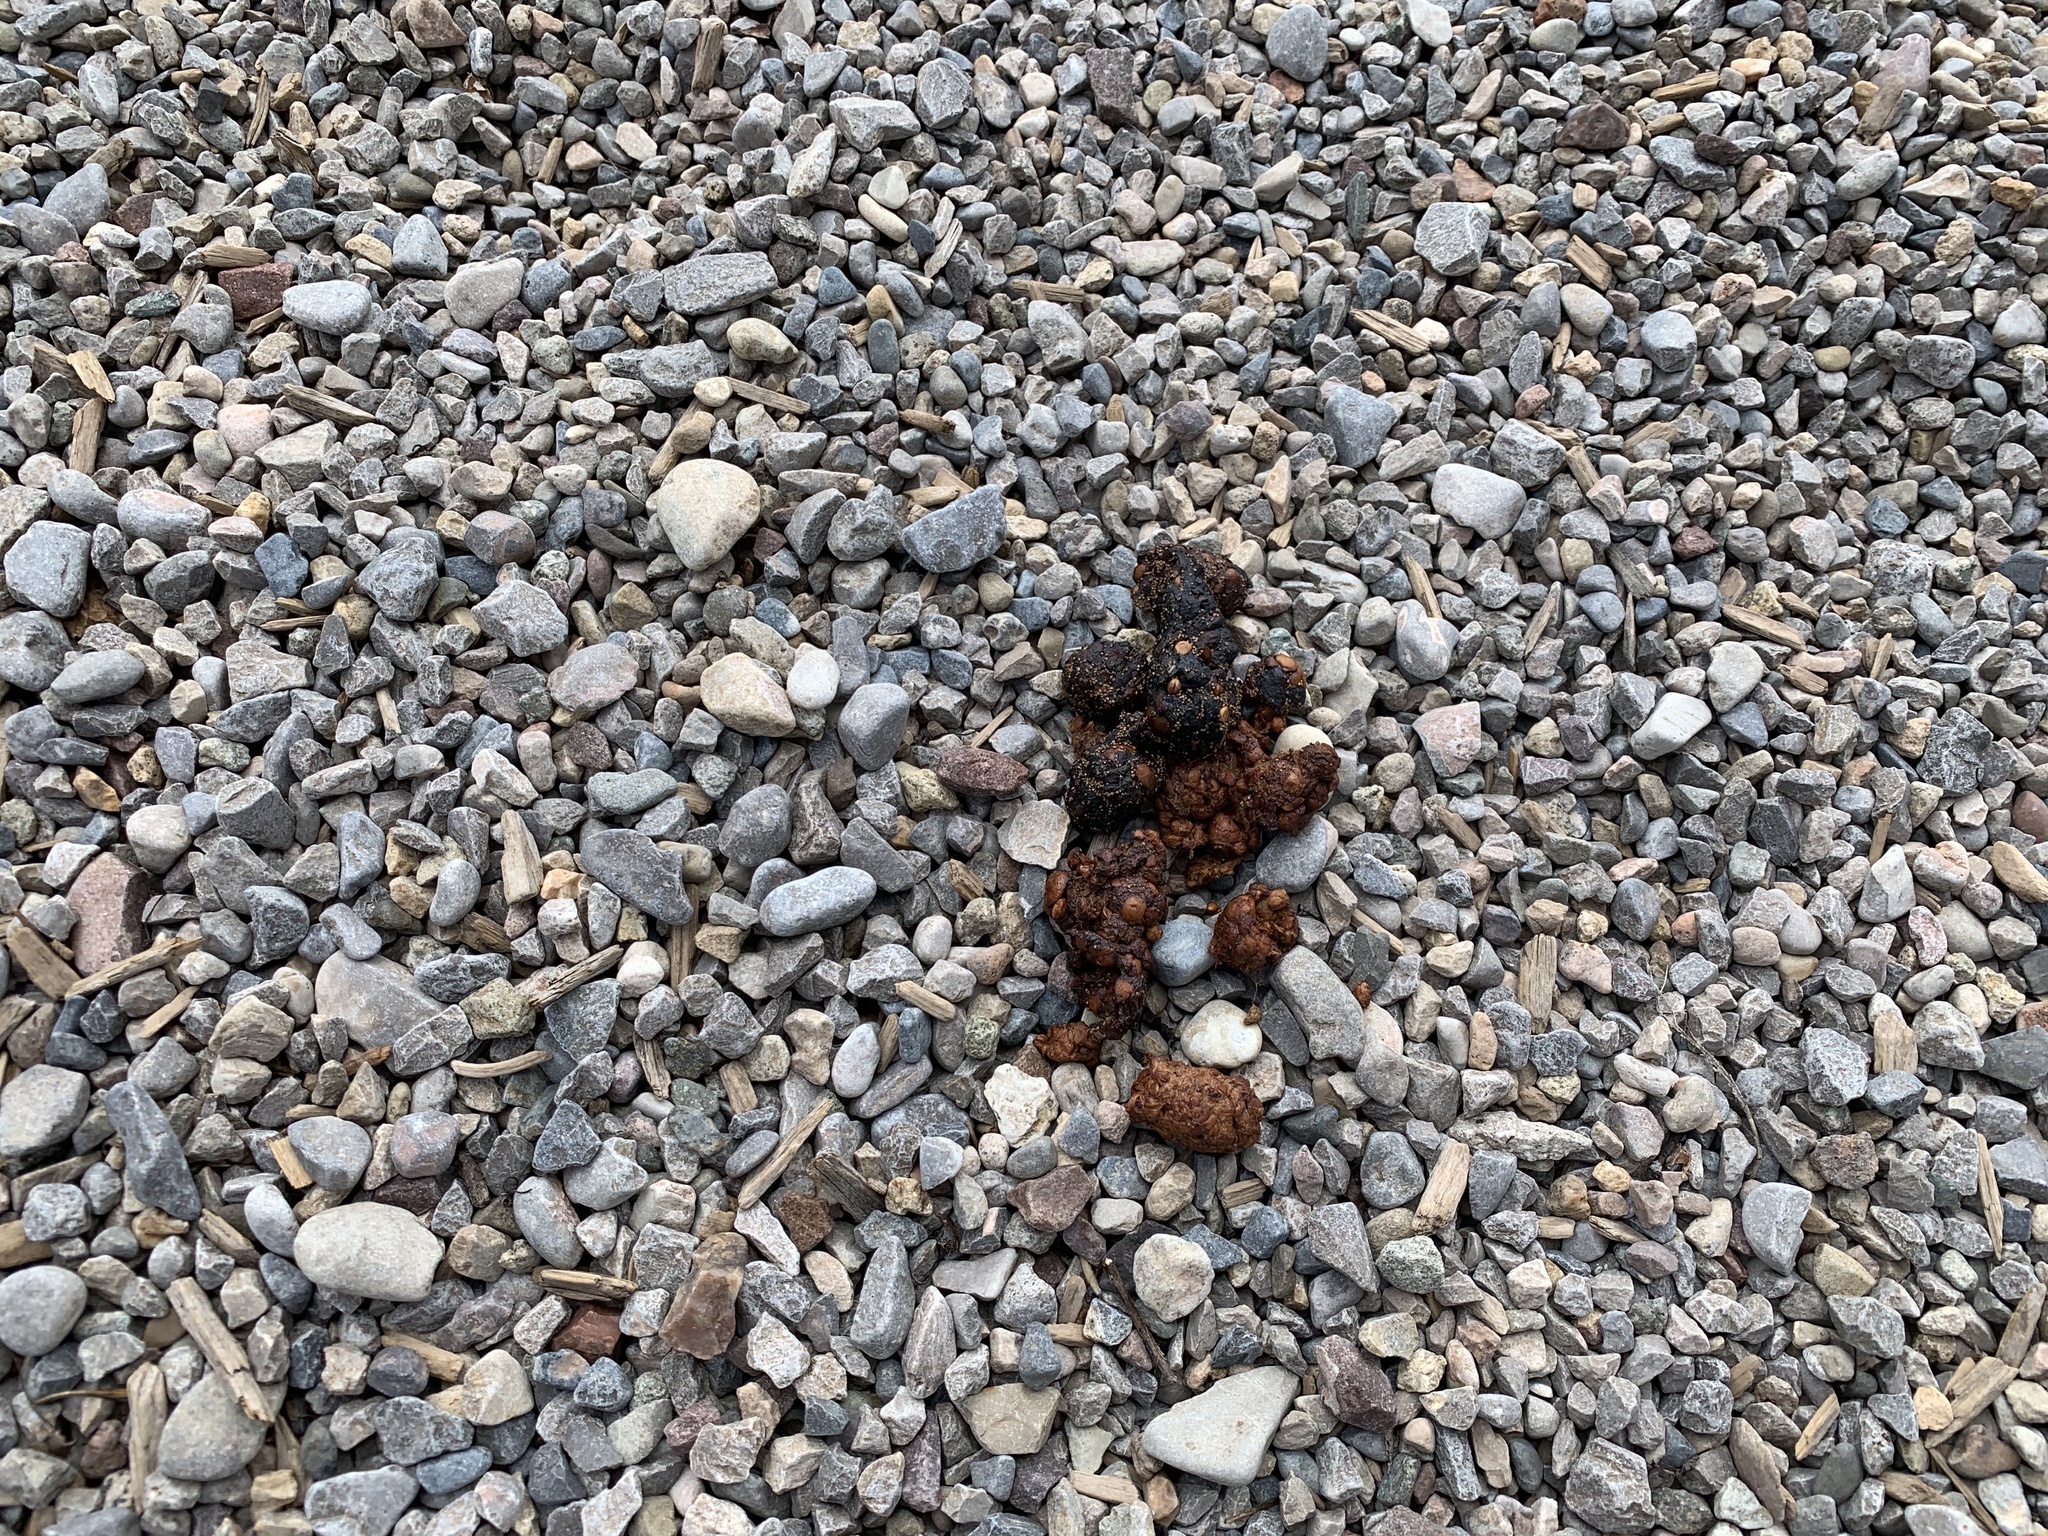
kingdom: Animalia
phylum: Chordata
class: Mammalia
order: Carnivora
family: Ursidae
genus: Ursus
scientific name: Ursus americanus
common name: American black bear
